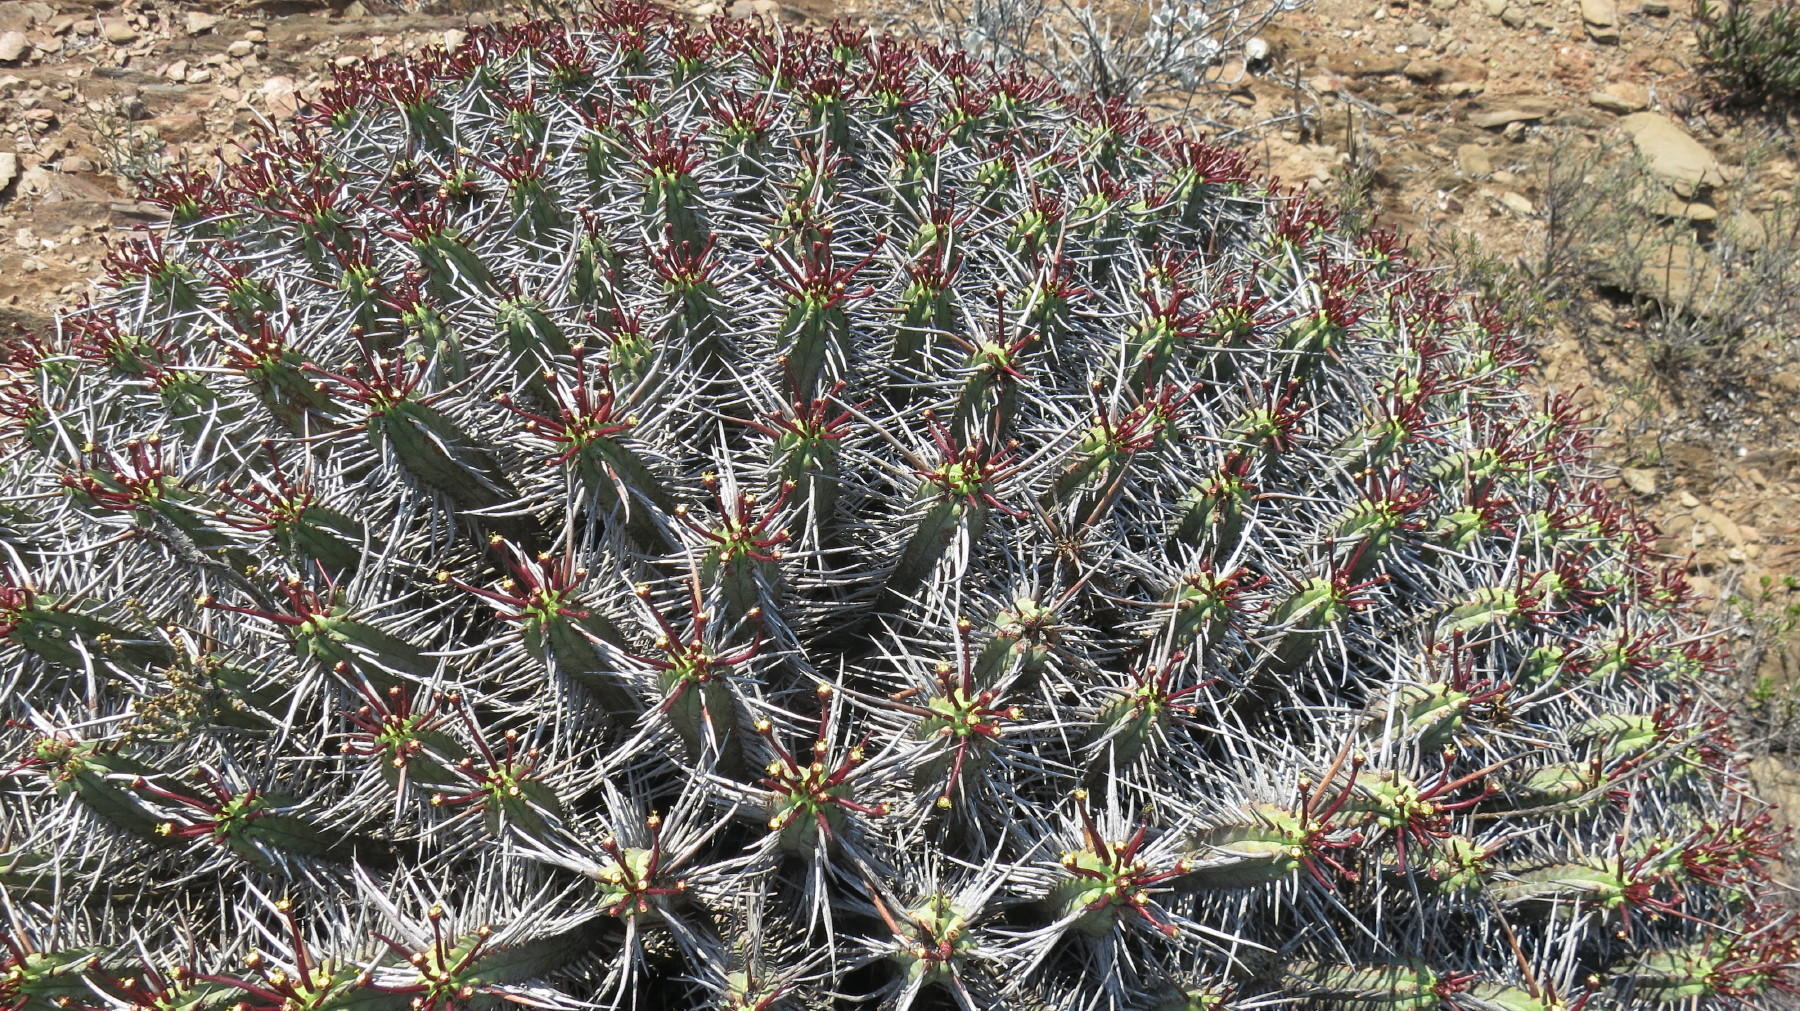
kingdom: Plantae
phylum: Tracheophyta
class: Magnoliopsida
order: Malpighiales
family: Euphorbiaceae
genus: Euphorbia
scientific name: Euphorbia heptagona
